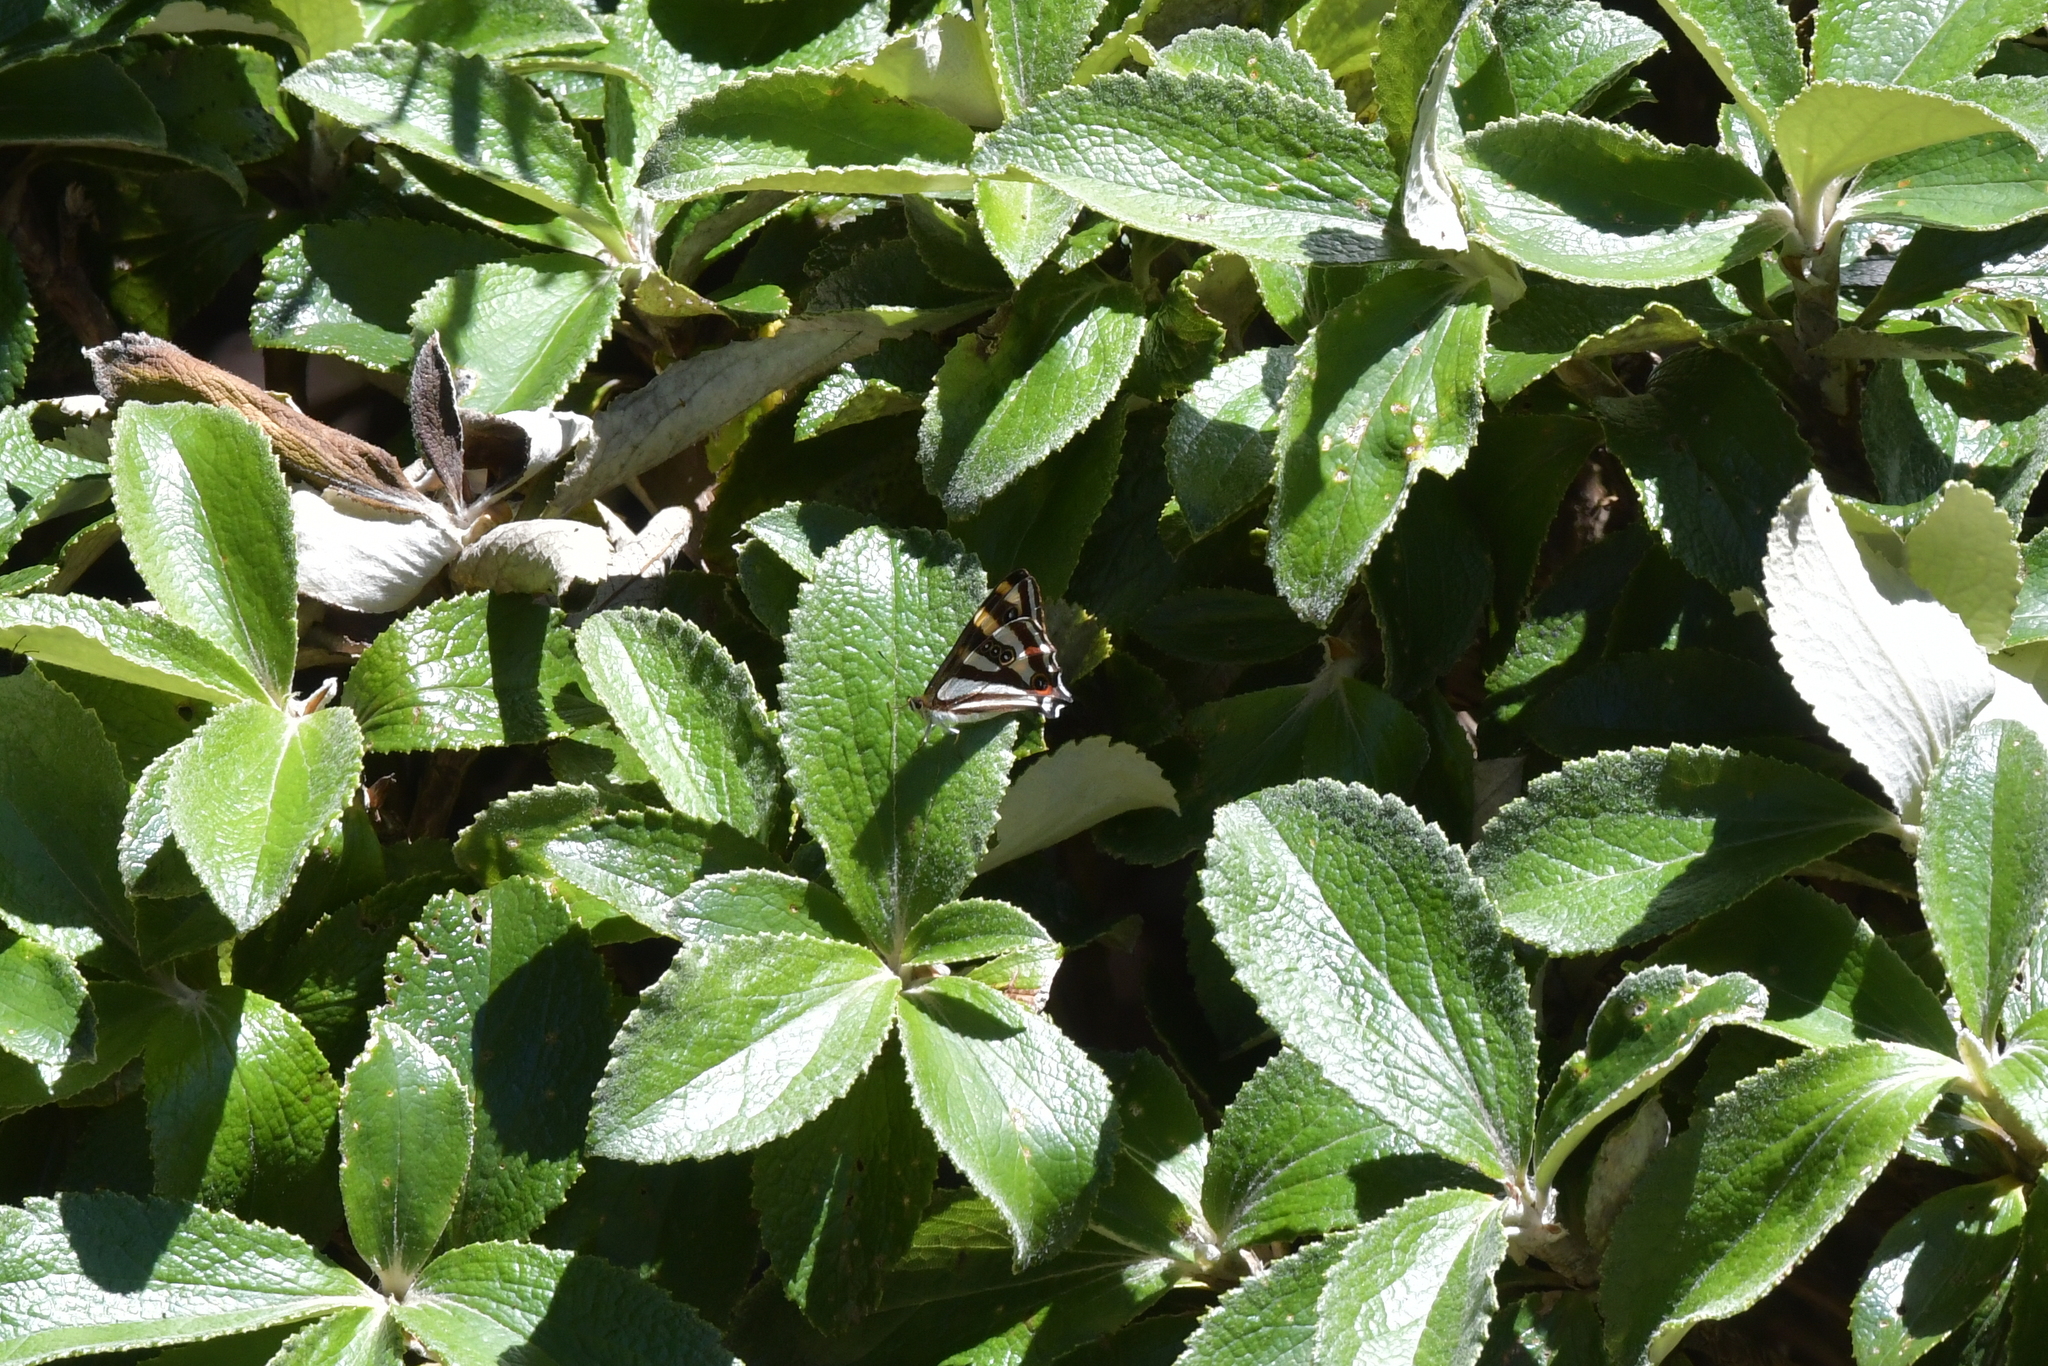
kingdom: Animalia
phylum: Arthropoda
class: Insecta
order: Lepidoptera
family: Nymphalidae
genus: Dodonidia
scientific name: Dodonidia helmsii
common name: Helm's butterfly
